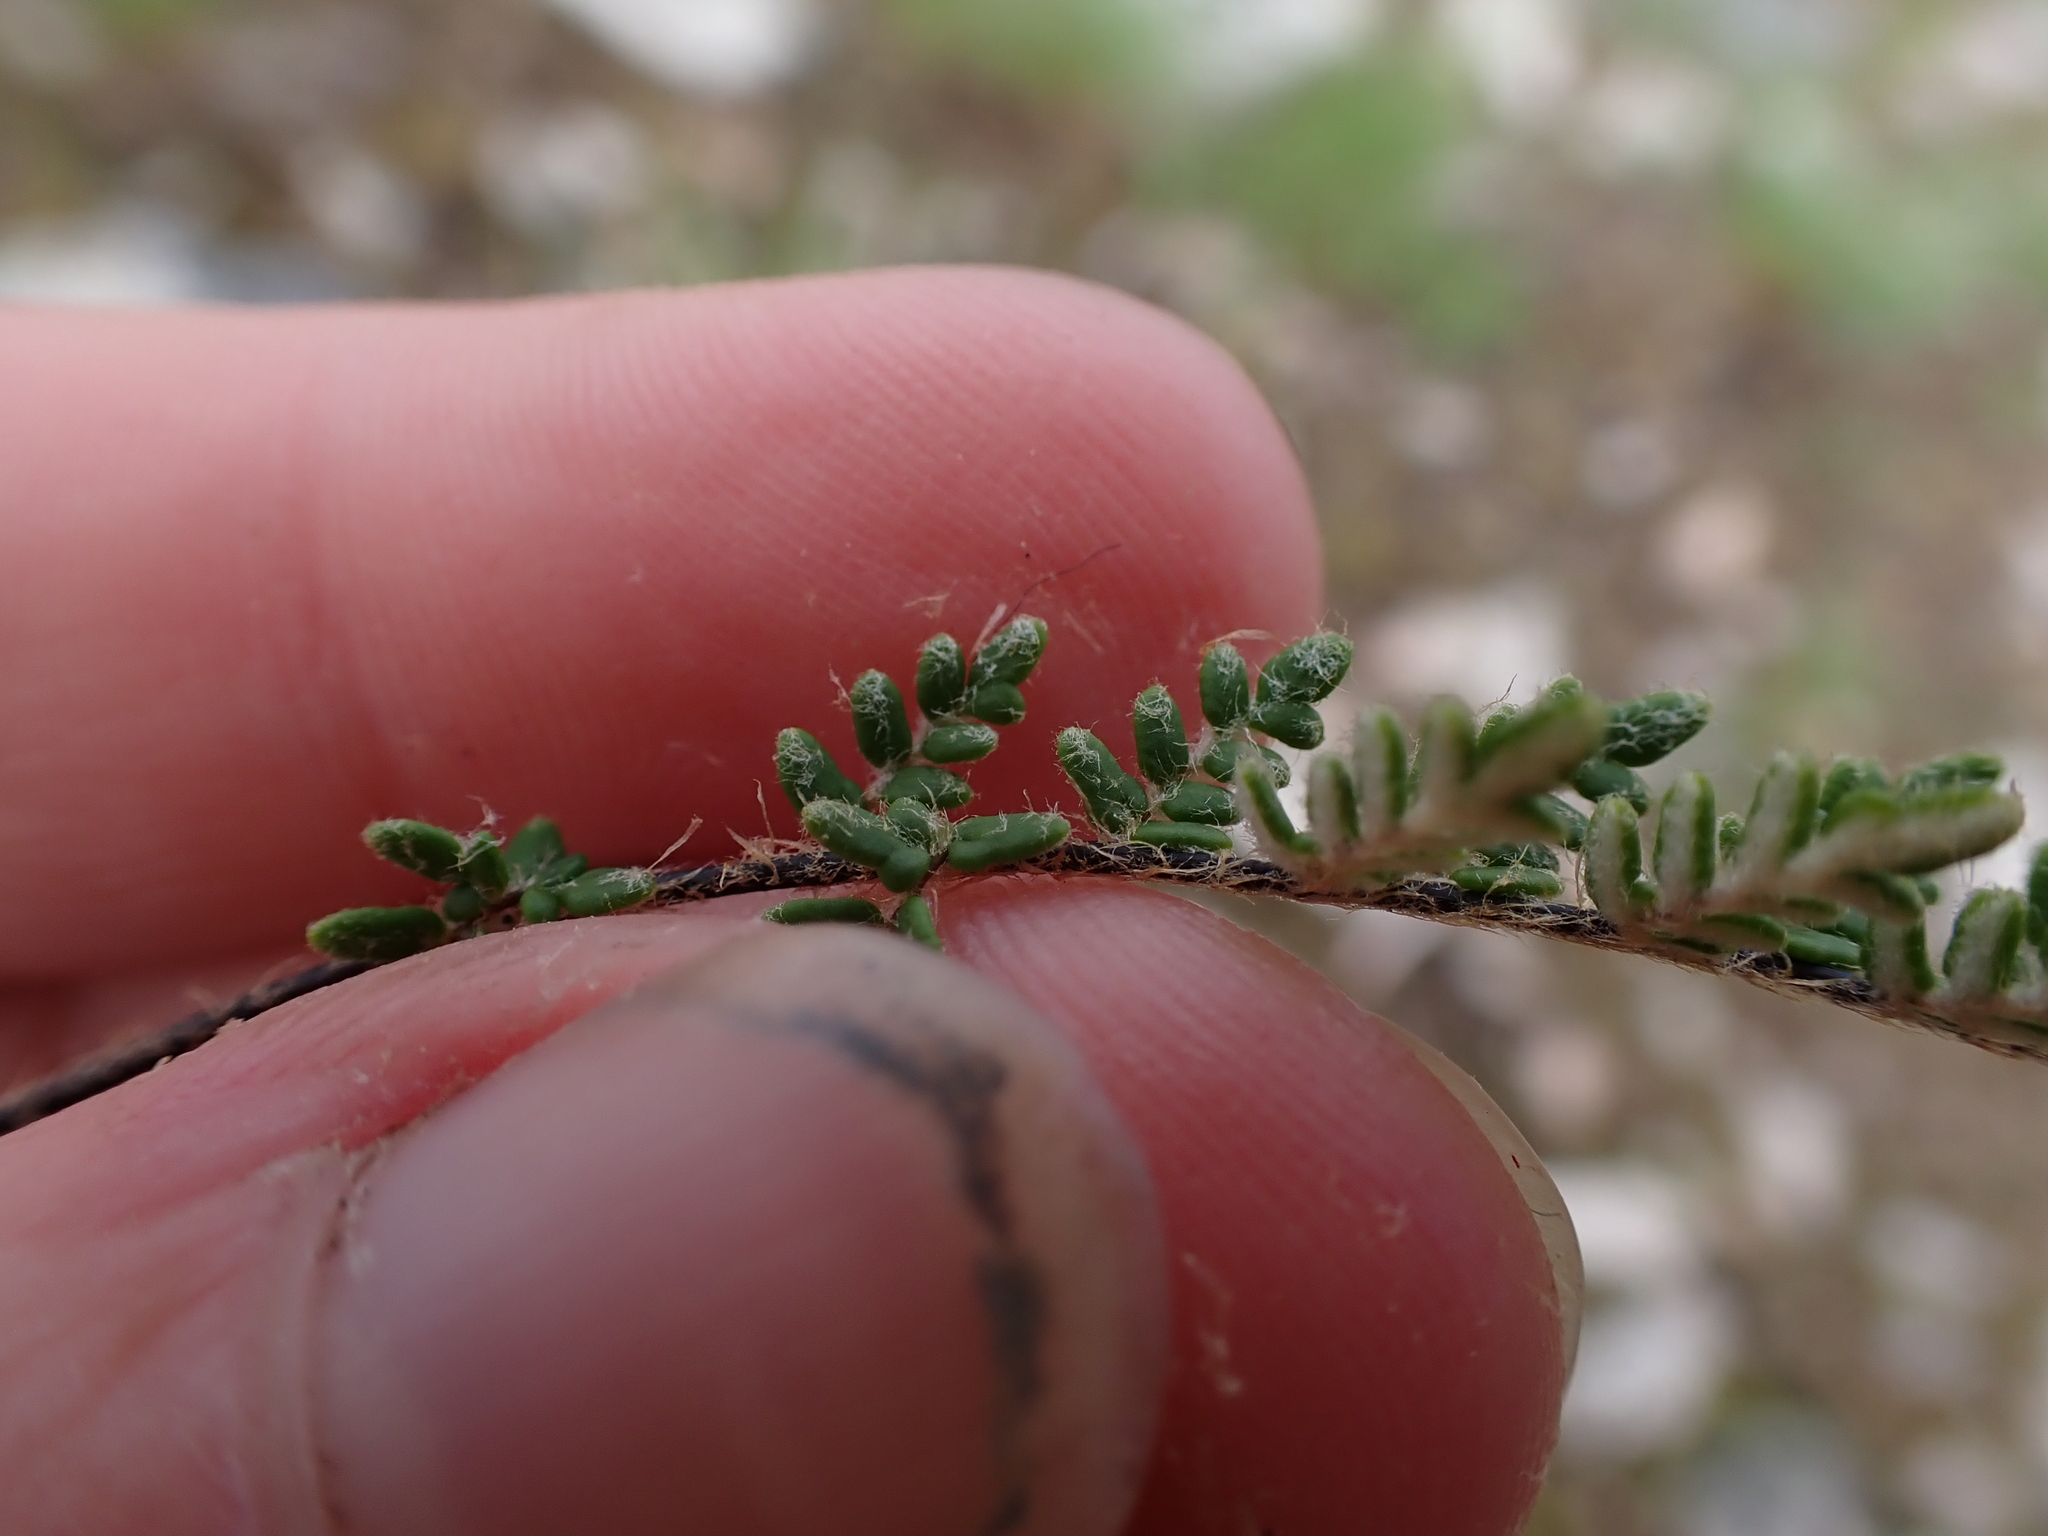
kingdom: Plantae
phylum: Tracheophyta
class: Polypodiopsida
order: Polypodiales
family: Pteridaceae
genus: Myriopteris
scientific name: Myriopteris gracillima
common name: Lace fern
